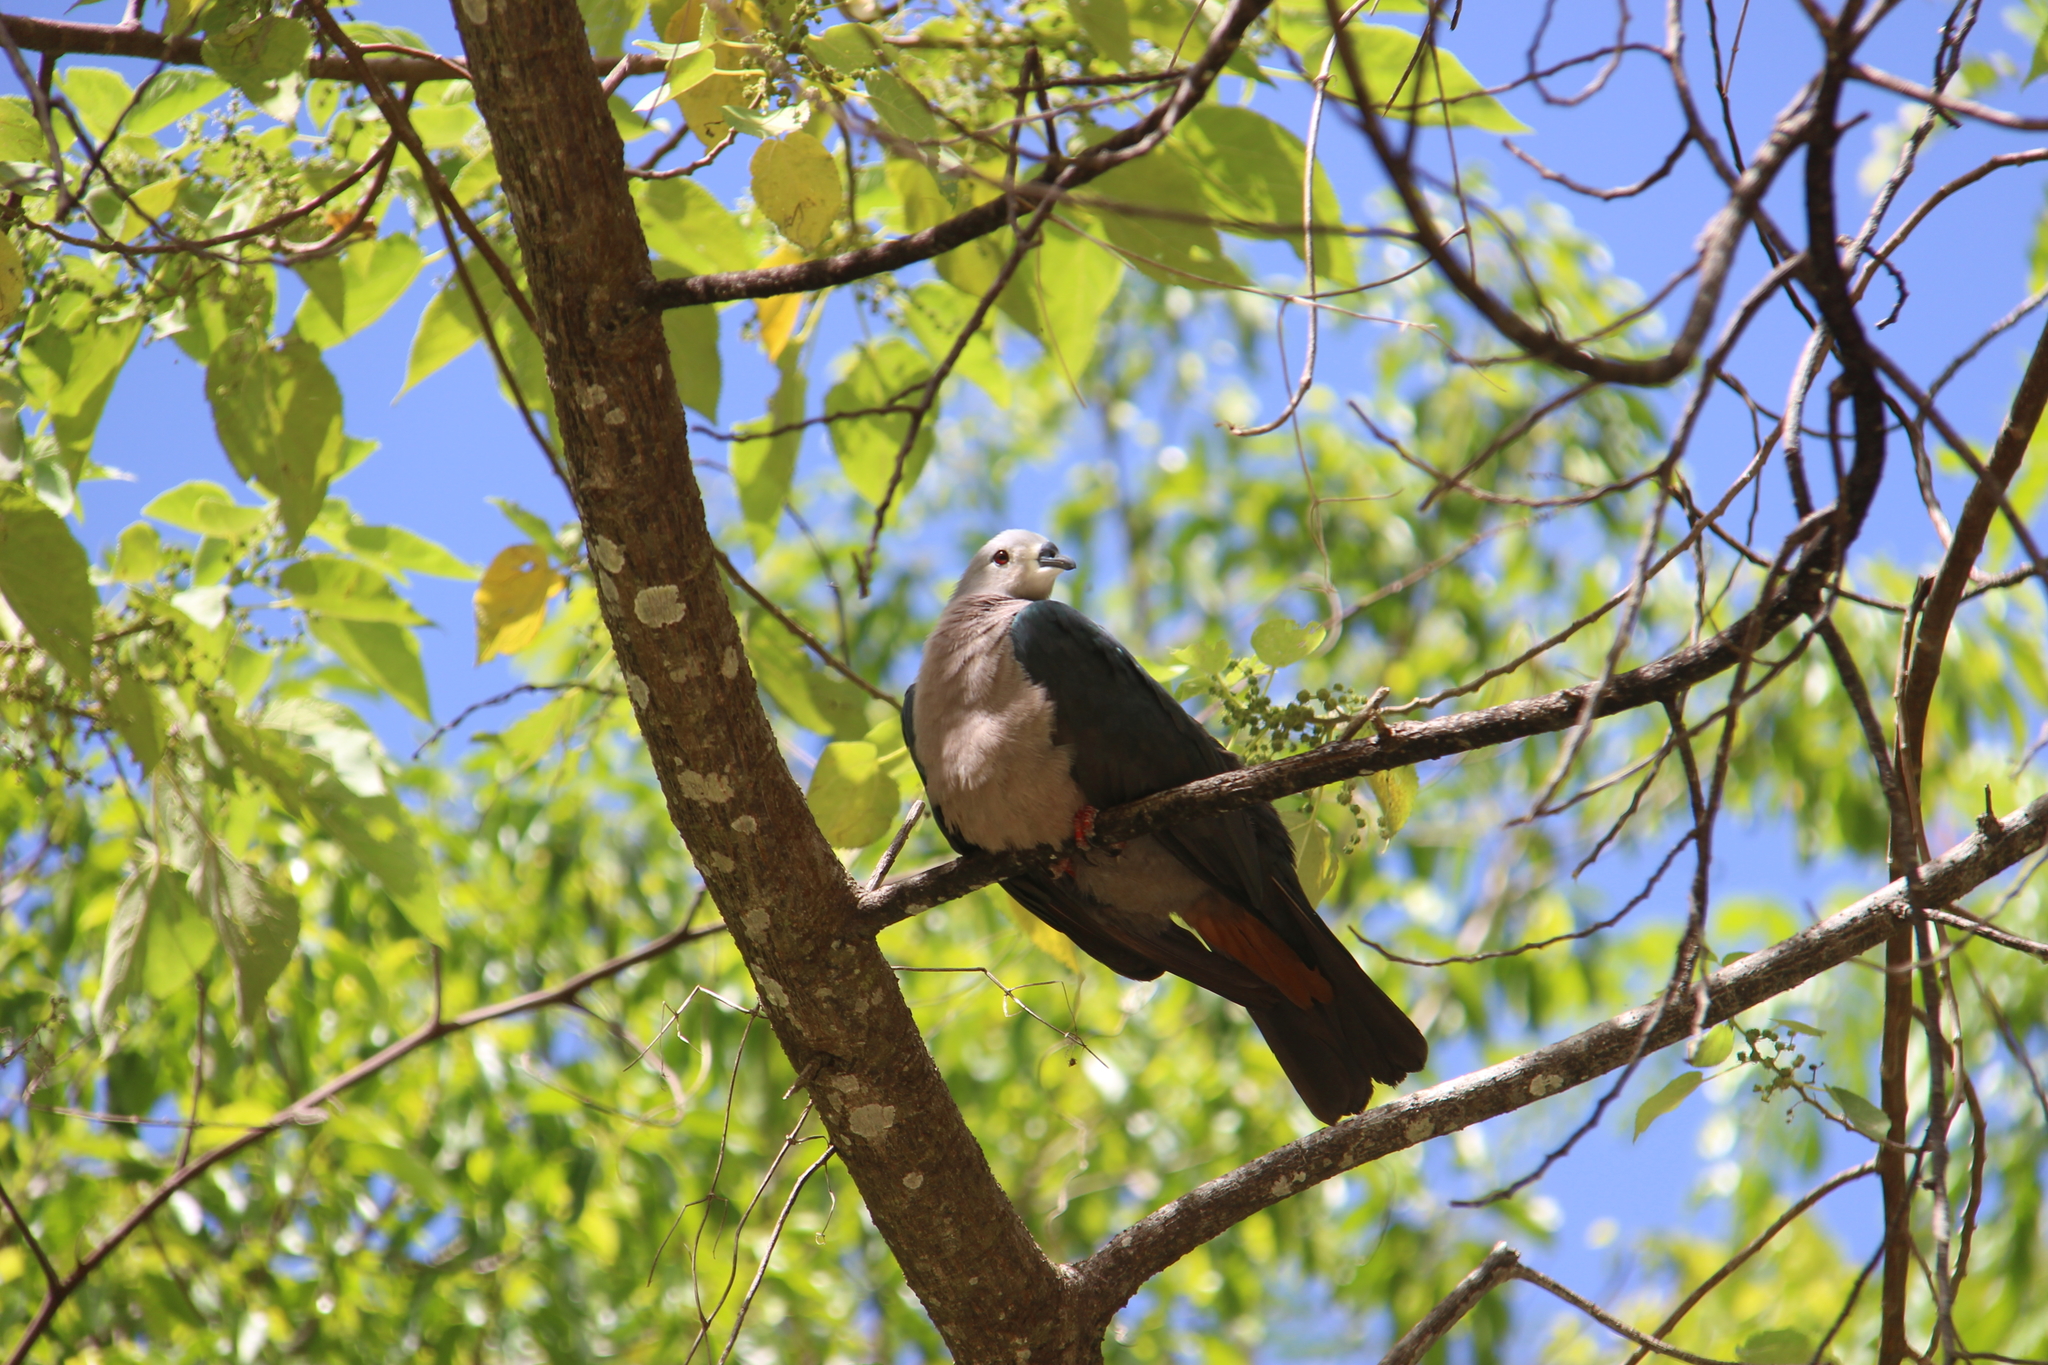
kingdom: Animalia
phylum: Chordata
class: Aves
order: Columbiformes
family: Columbidae
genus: Ducula
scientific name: Ducula pacifica
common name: Pacific imperial-pigeon
